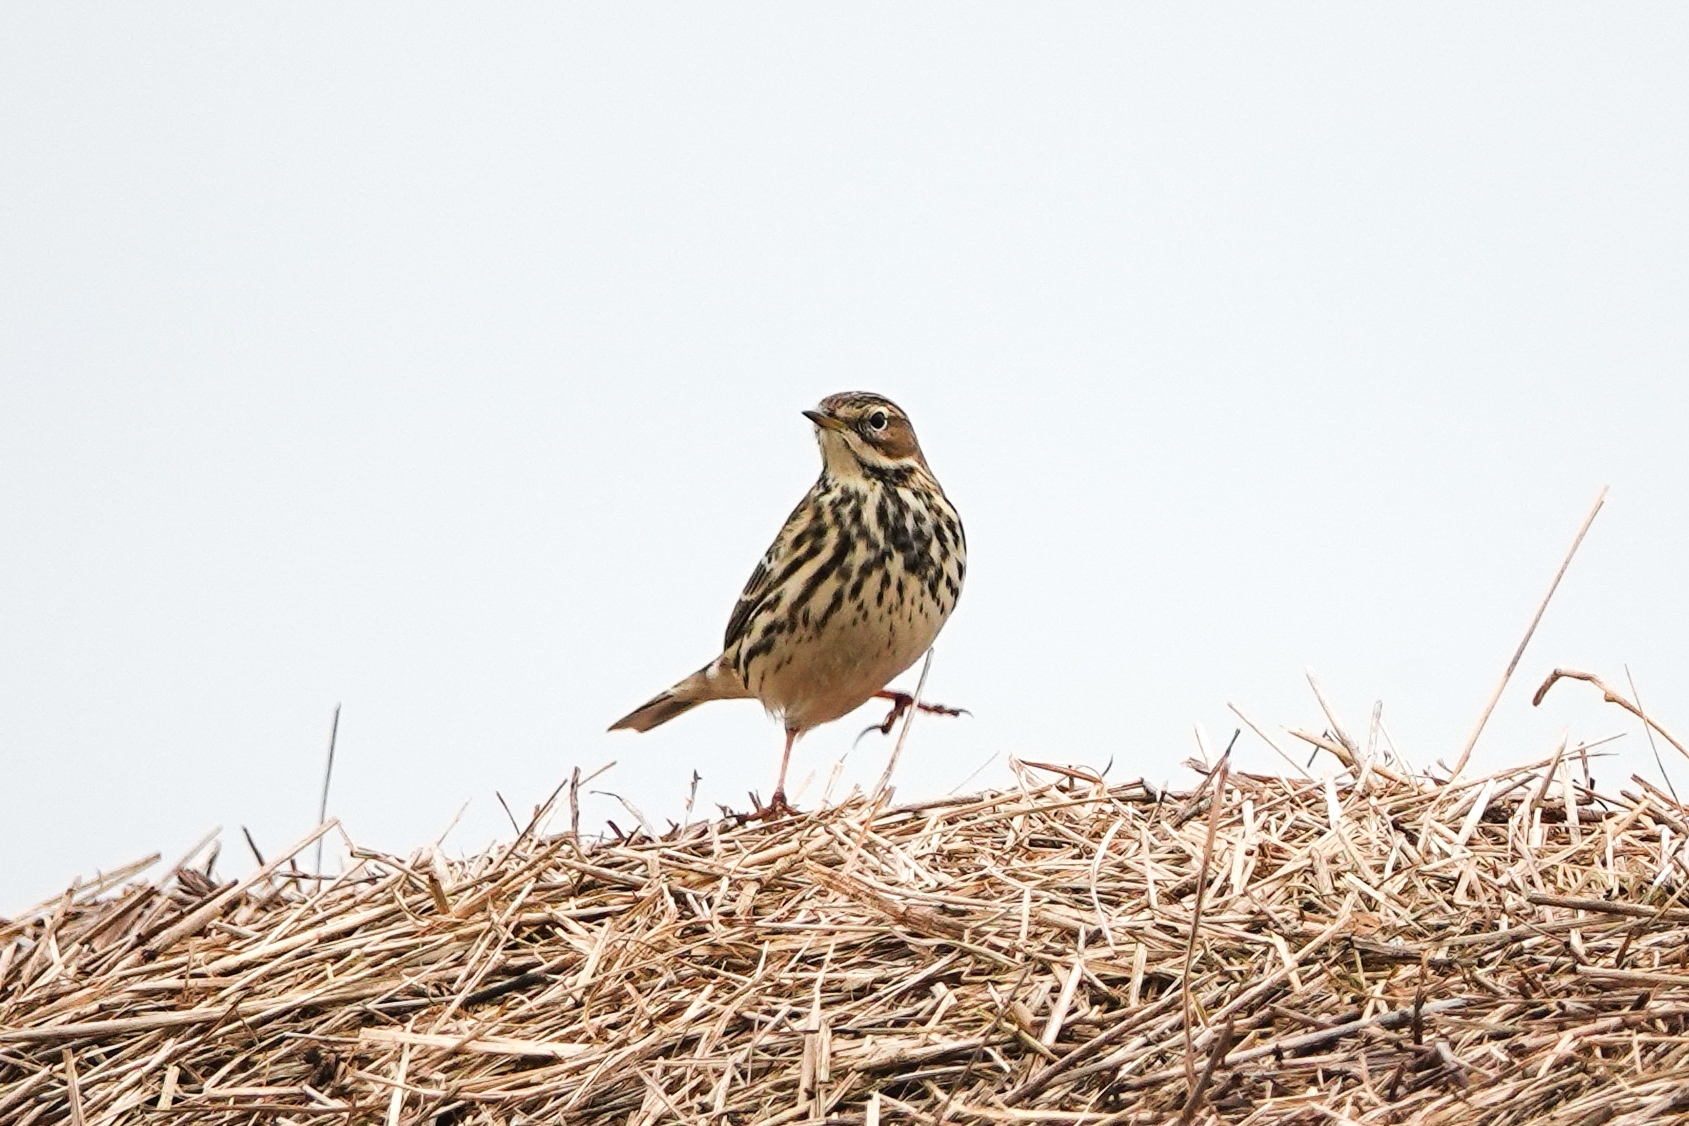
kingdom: Animalia
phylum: Chordata
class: Aves
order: Passeriformes
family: Motacillidae
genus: Anthus
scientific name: Anthus cervinus
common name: Red-throated pipit
